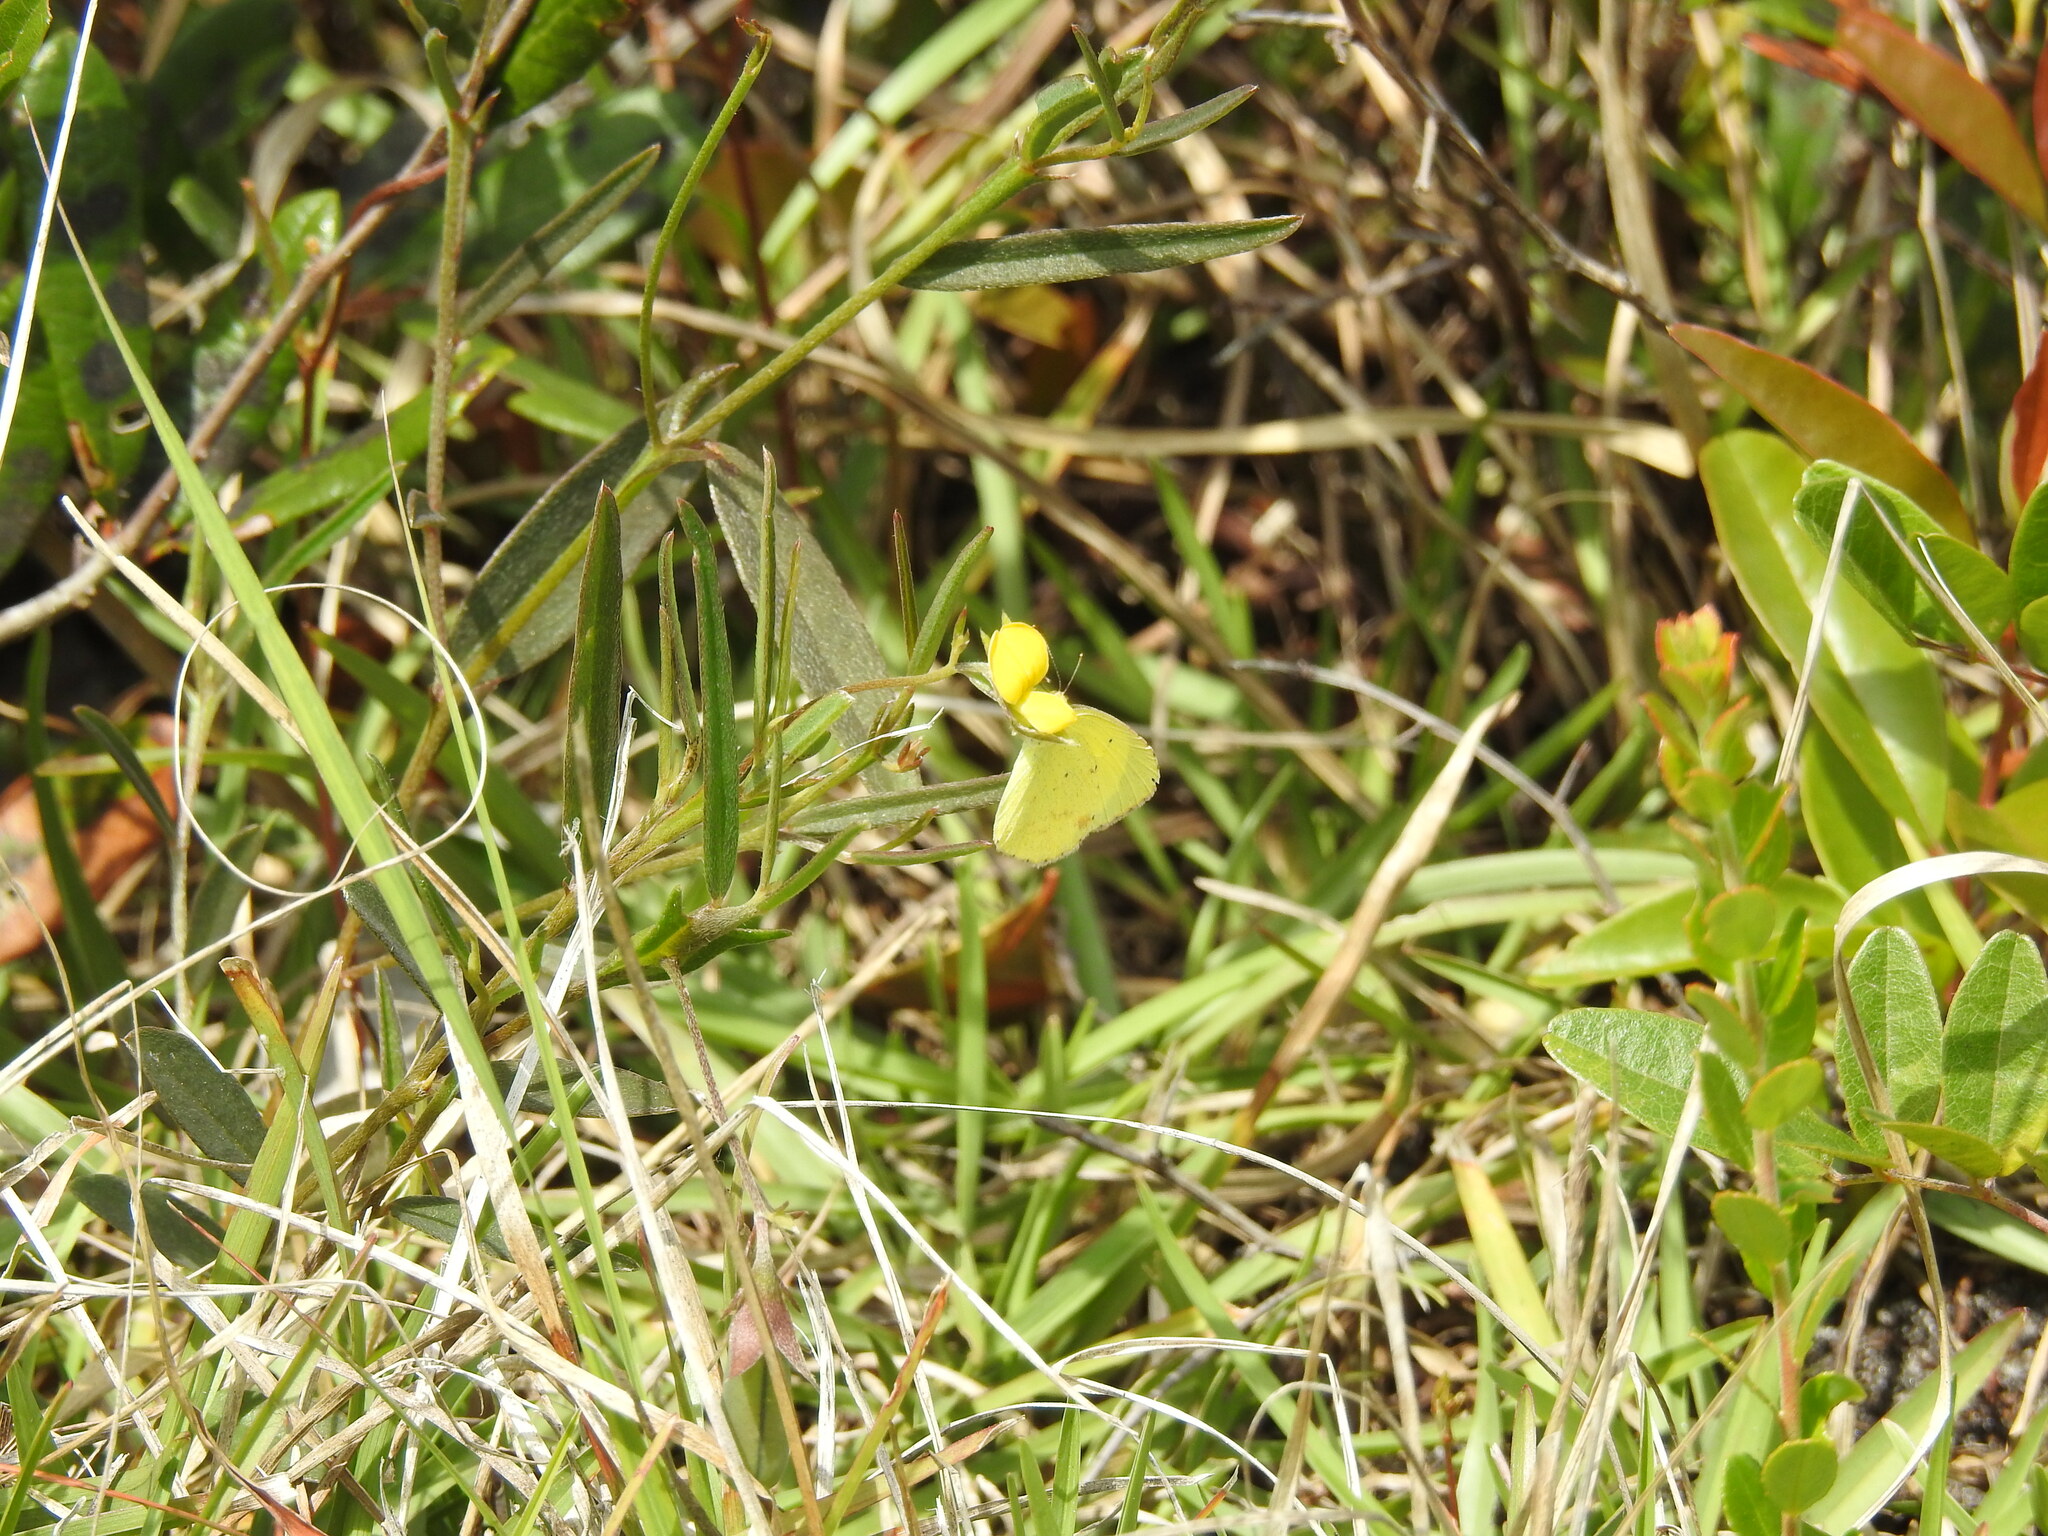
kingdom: Animalia
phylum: Arthropoda
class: Insecta
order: Lepidoptera
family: Pieridae
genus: Pyrisitia
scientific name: Pyrisitia lisa
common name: Little yellow
